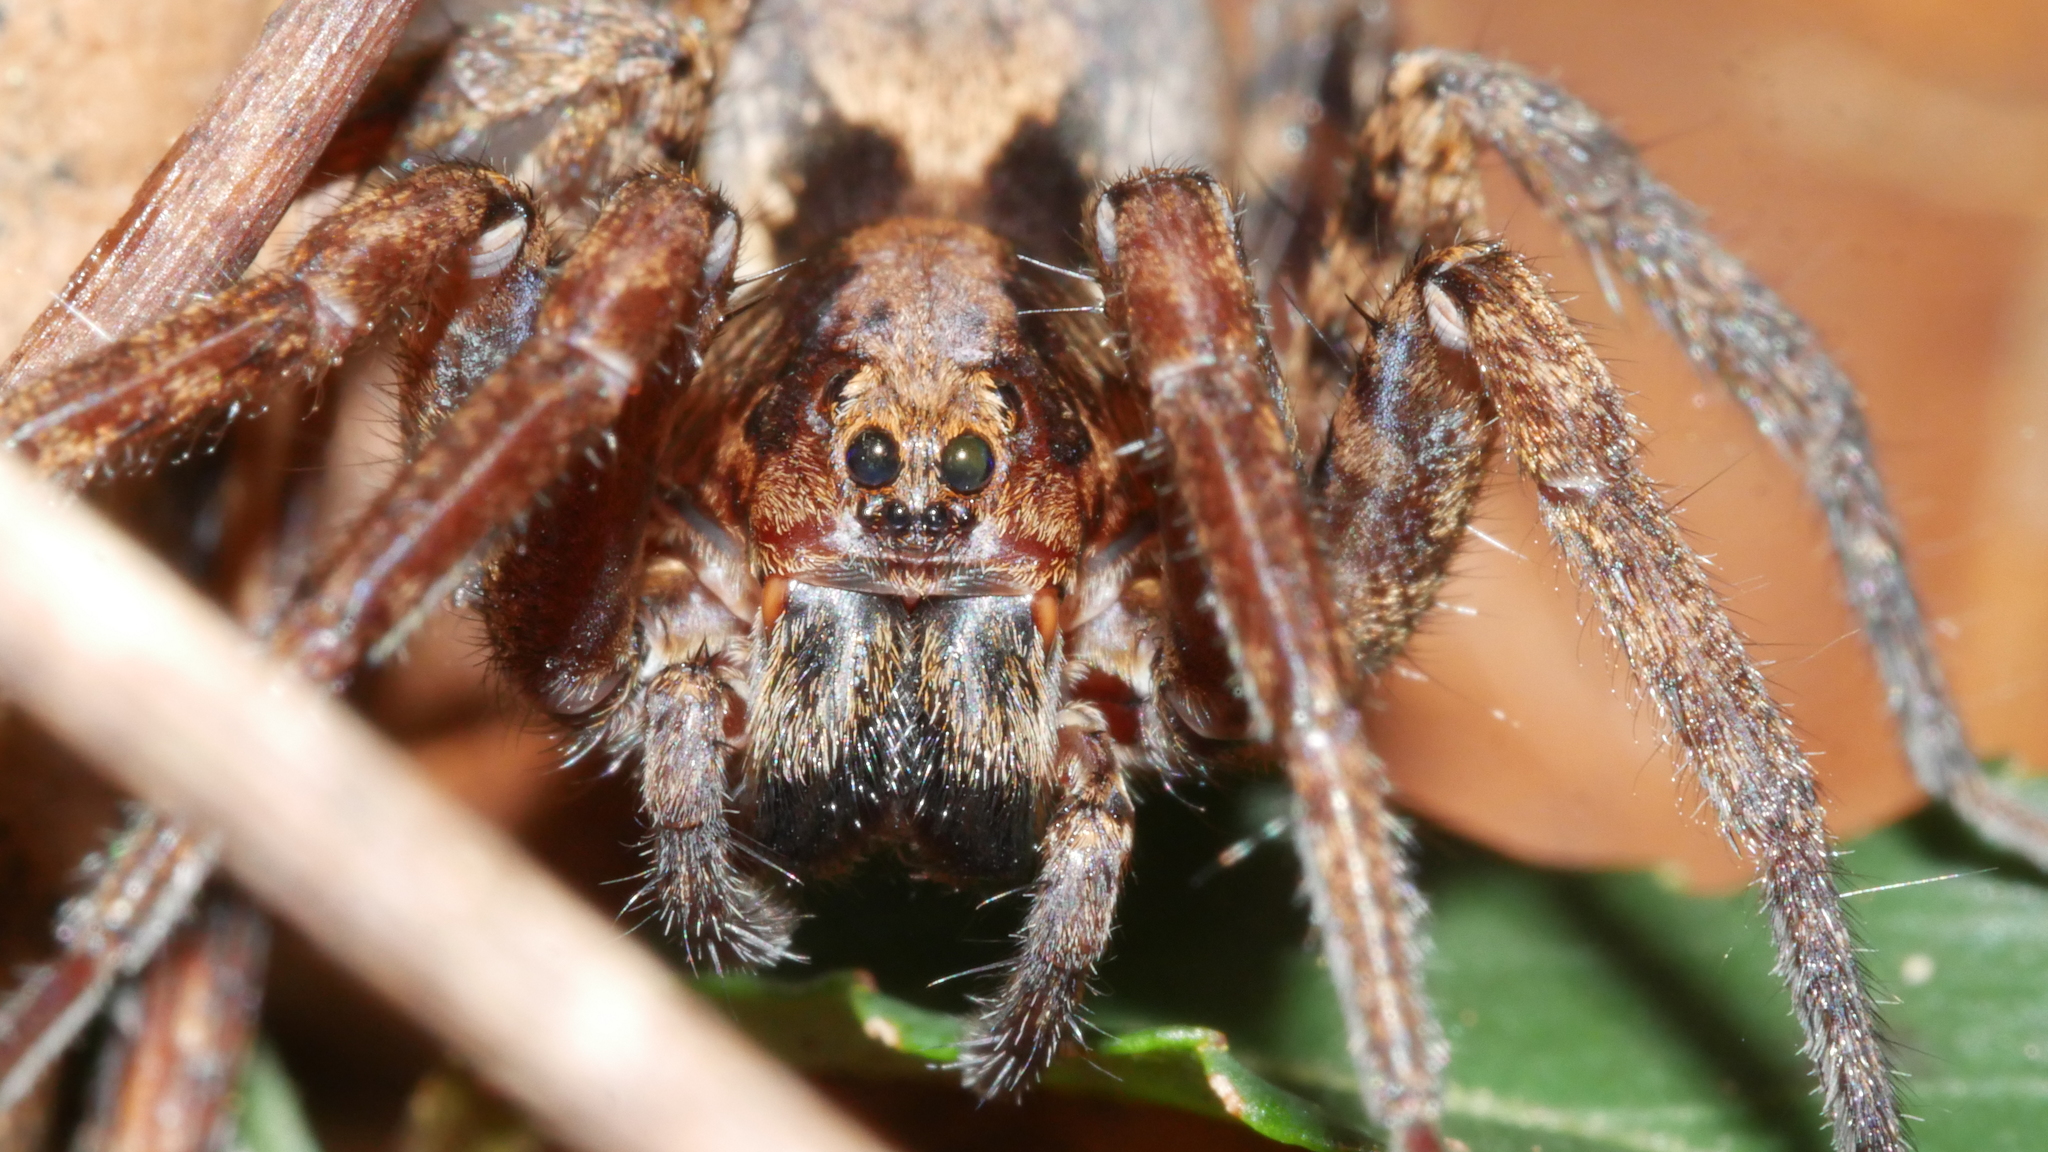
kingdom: Animalia
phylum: Arthropoda
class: Arachnida
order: Araneae
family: Lycosidae
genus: Arctosa
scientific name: Arctosa littoralis
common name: Wolf spiders
